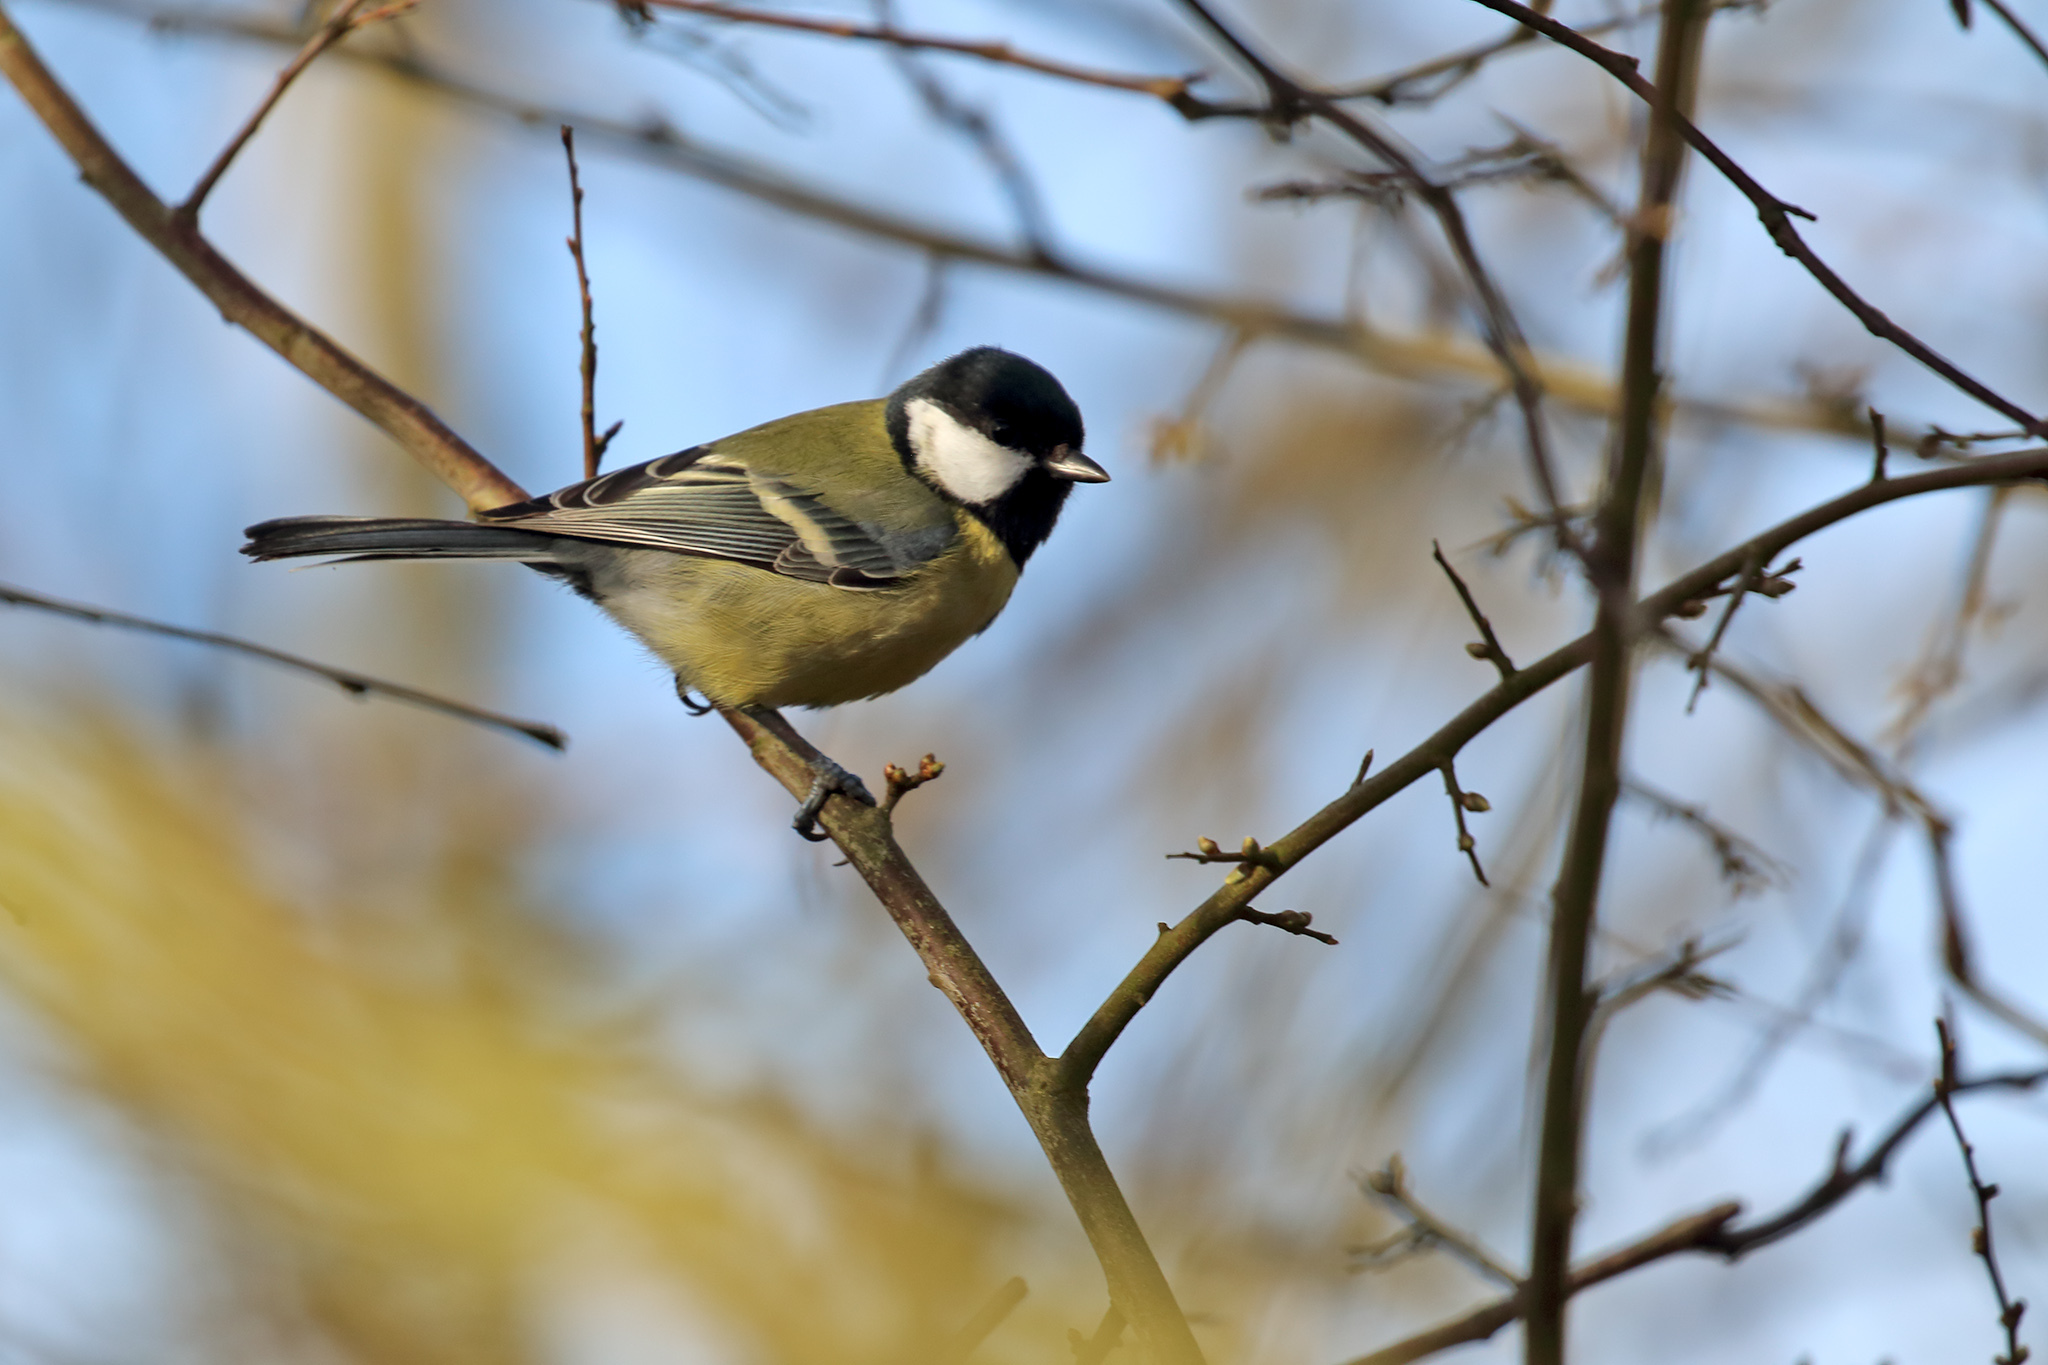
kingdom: Animalia
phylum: Chordata
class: Aves
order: Passeriformes
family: Paridae
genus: Parus
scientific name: Parus major
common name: Great tit
